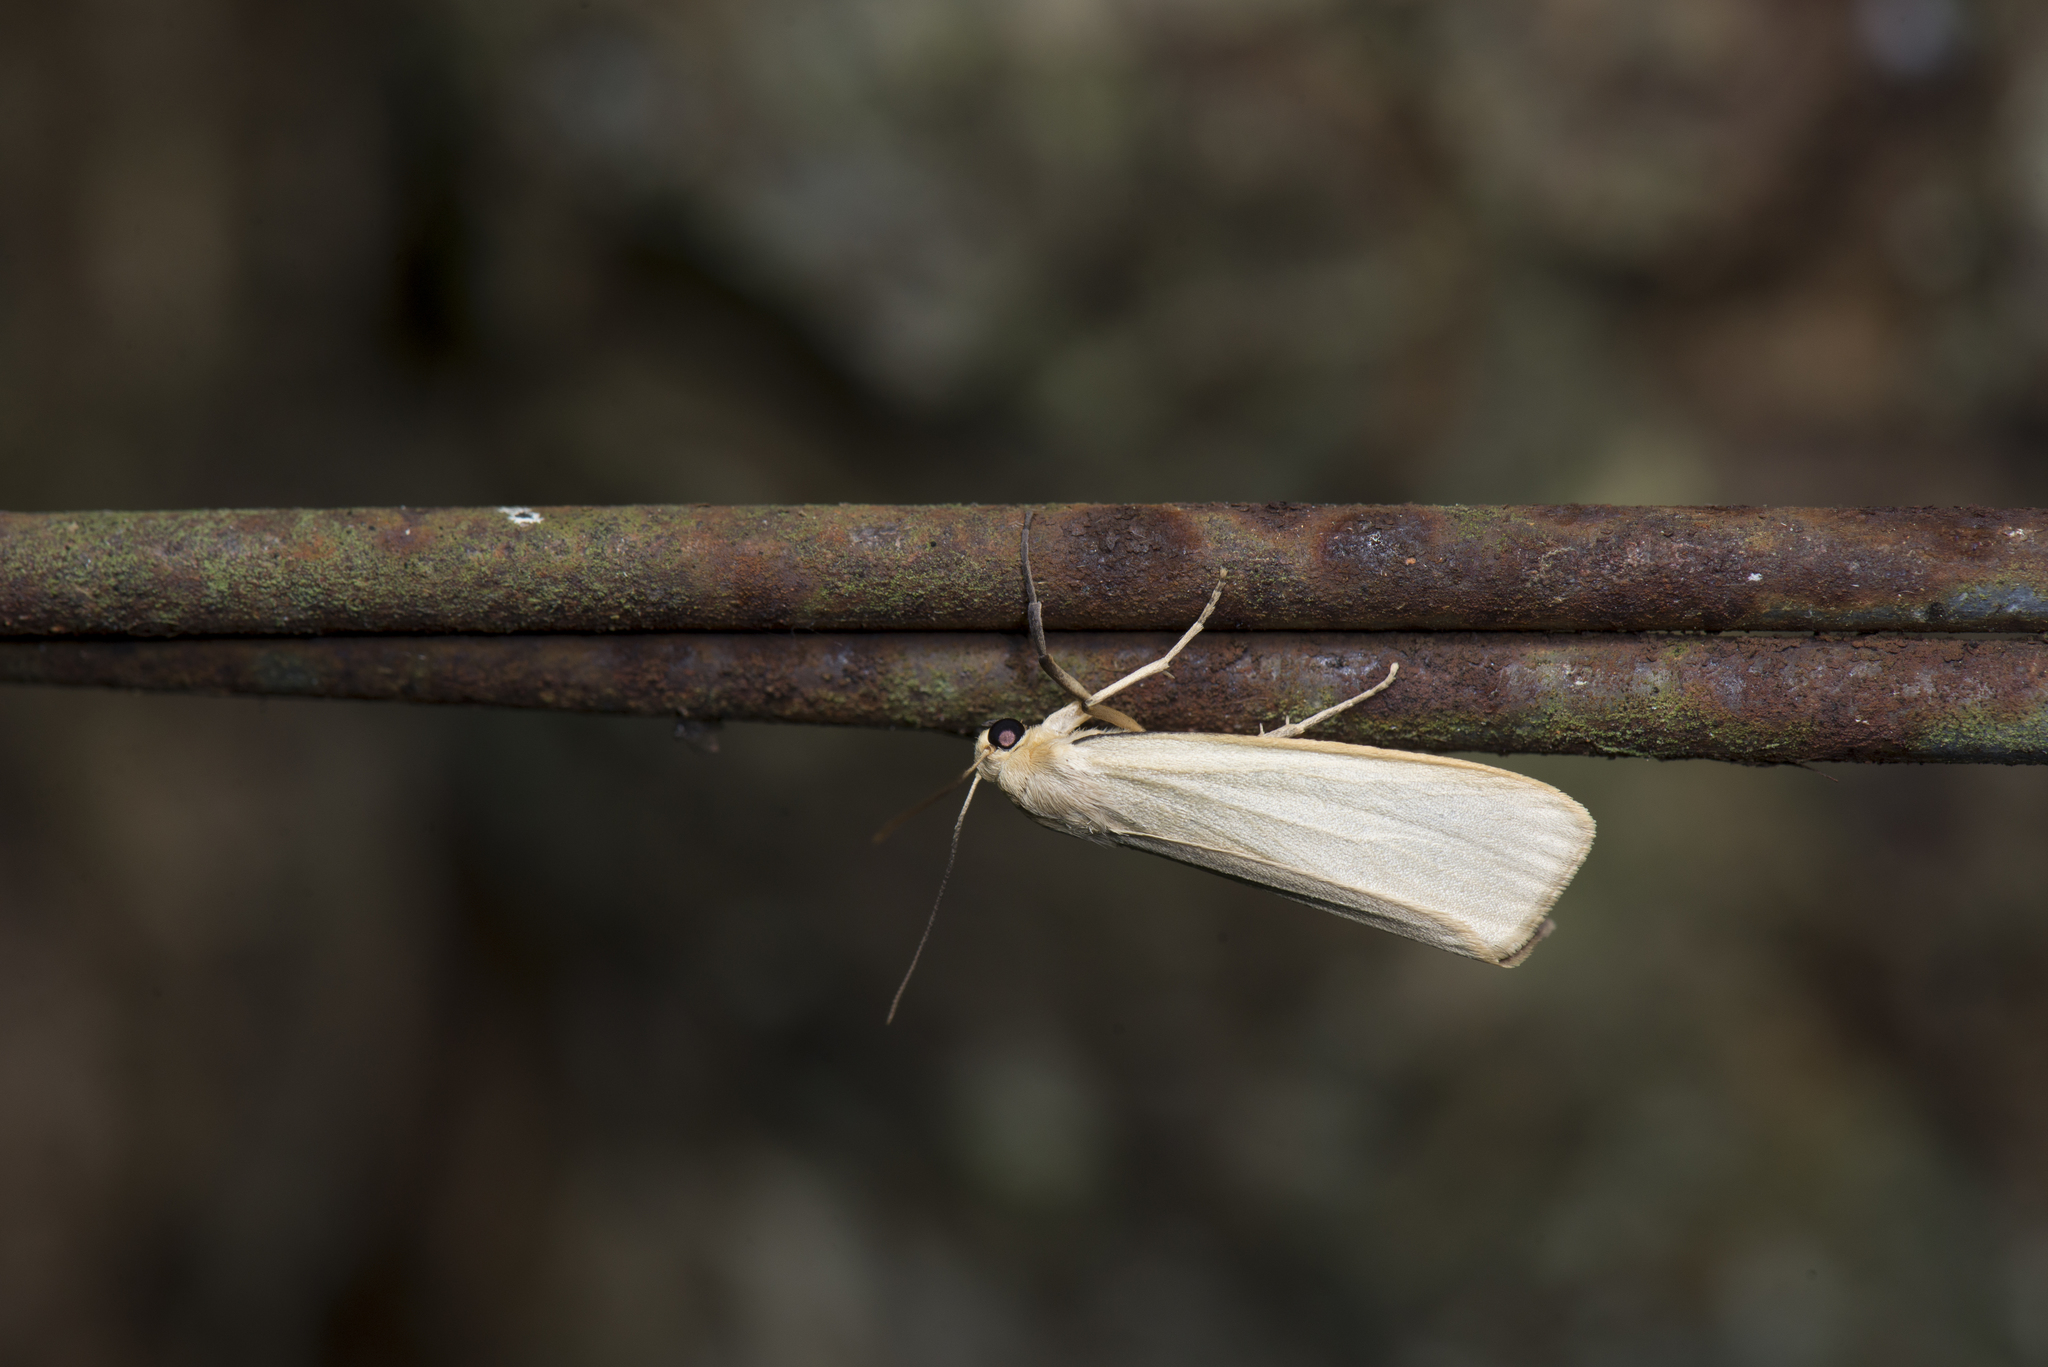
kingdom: Animalia
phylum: Arthropoda
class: Insecta
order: Lepidoptera
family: Erebidae
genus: Ghoria
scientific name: Ghoria tecta
